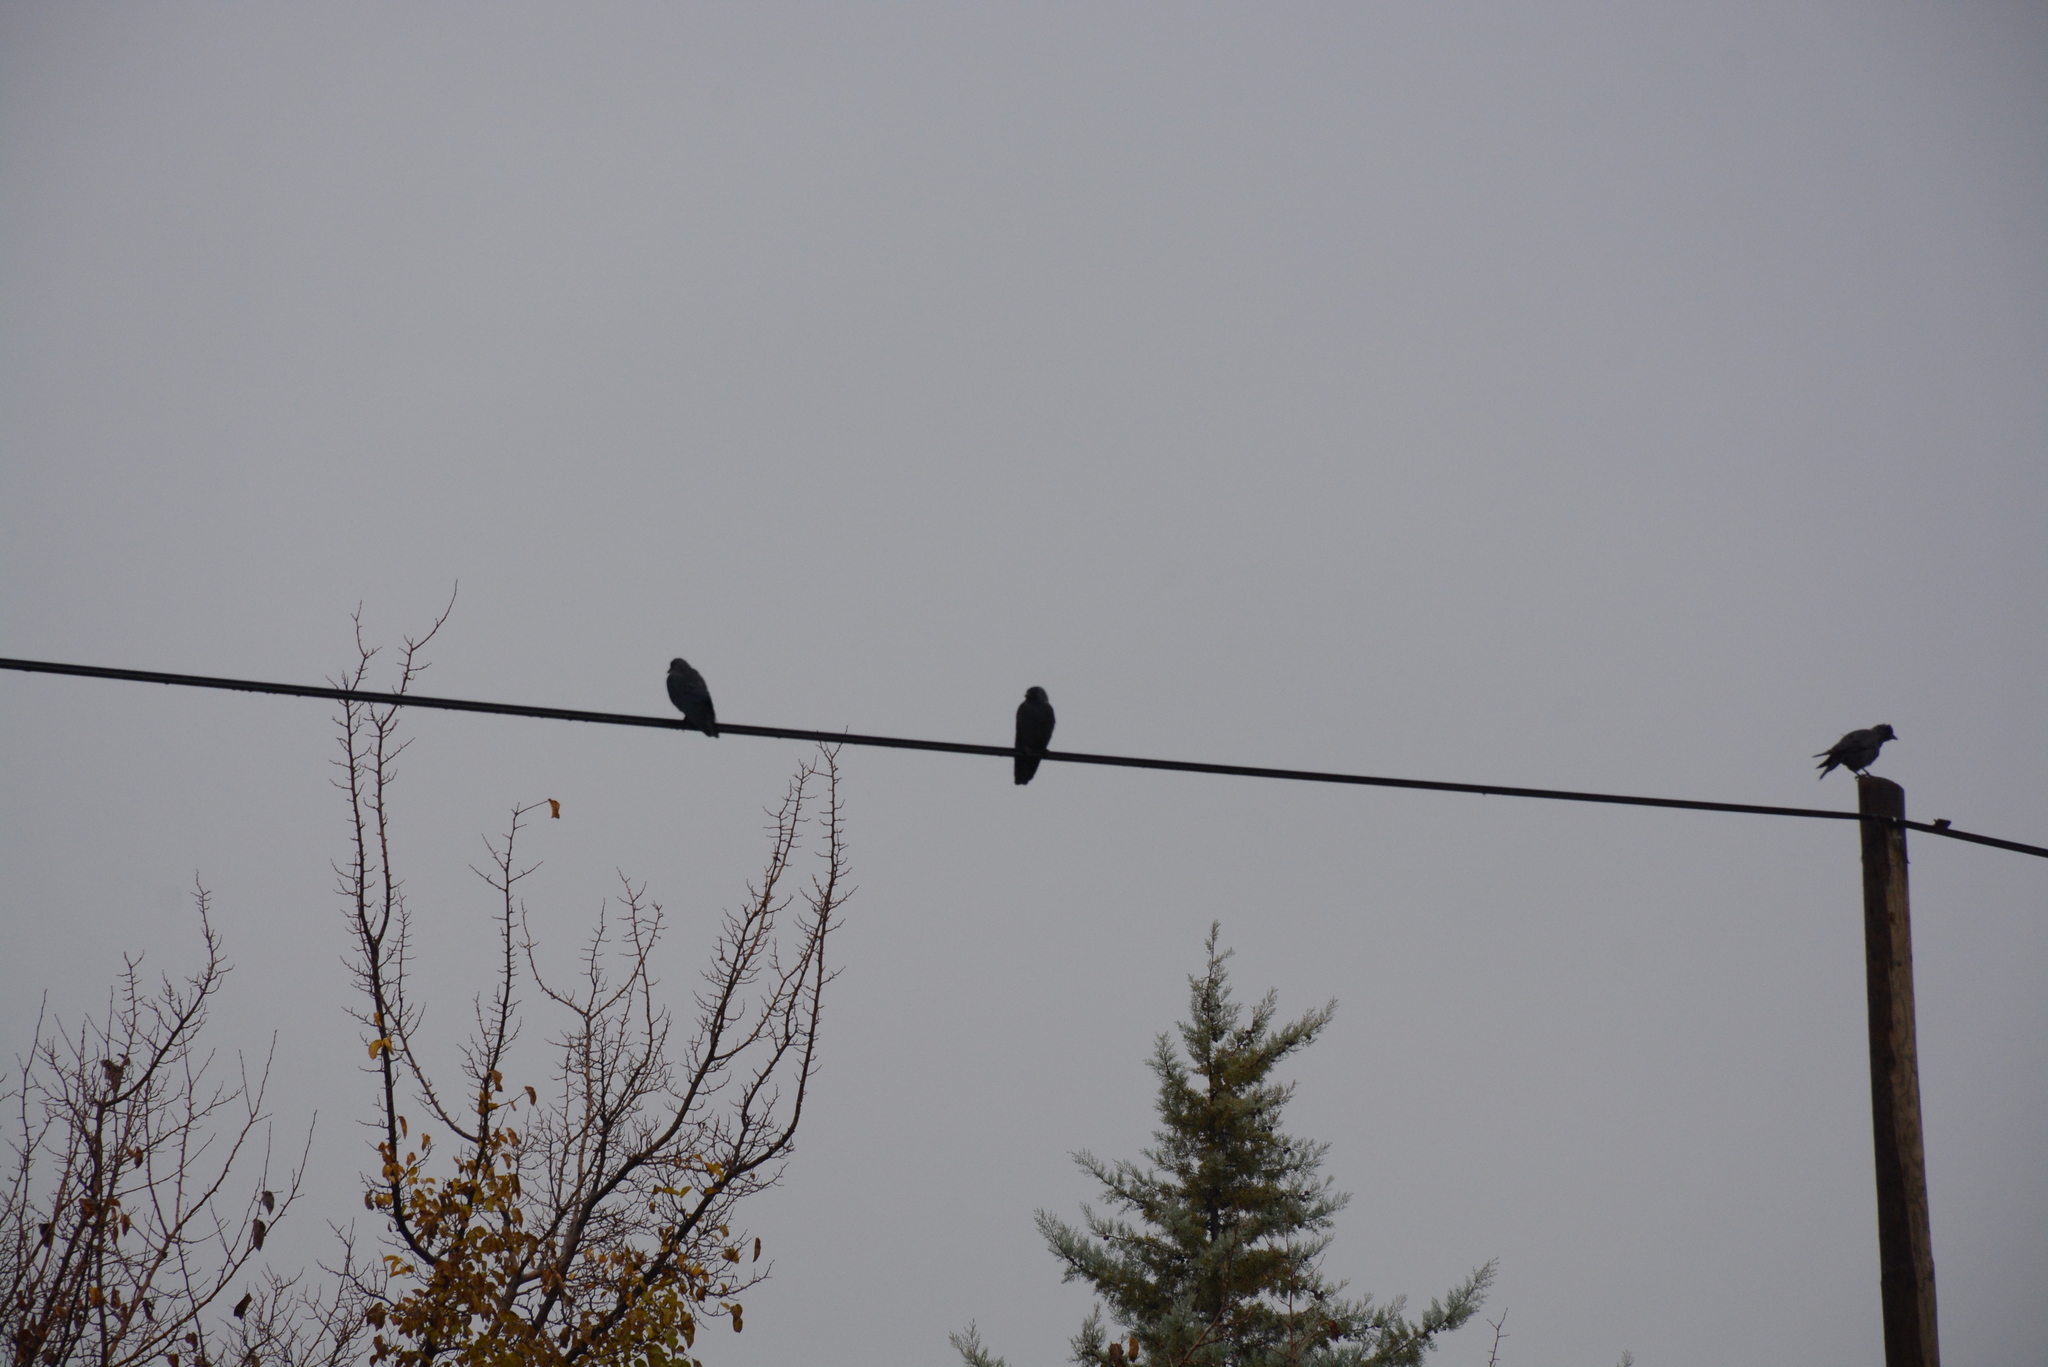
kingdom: Animalia
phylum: Chordata
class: Aves
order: Passeriformes
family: Corvidae
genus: Coloeus
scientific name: Coloeus monedula
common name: Western jackdaw
